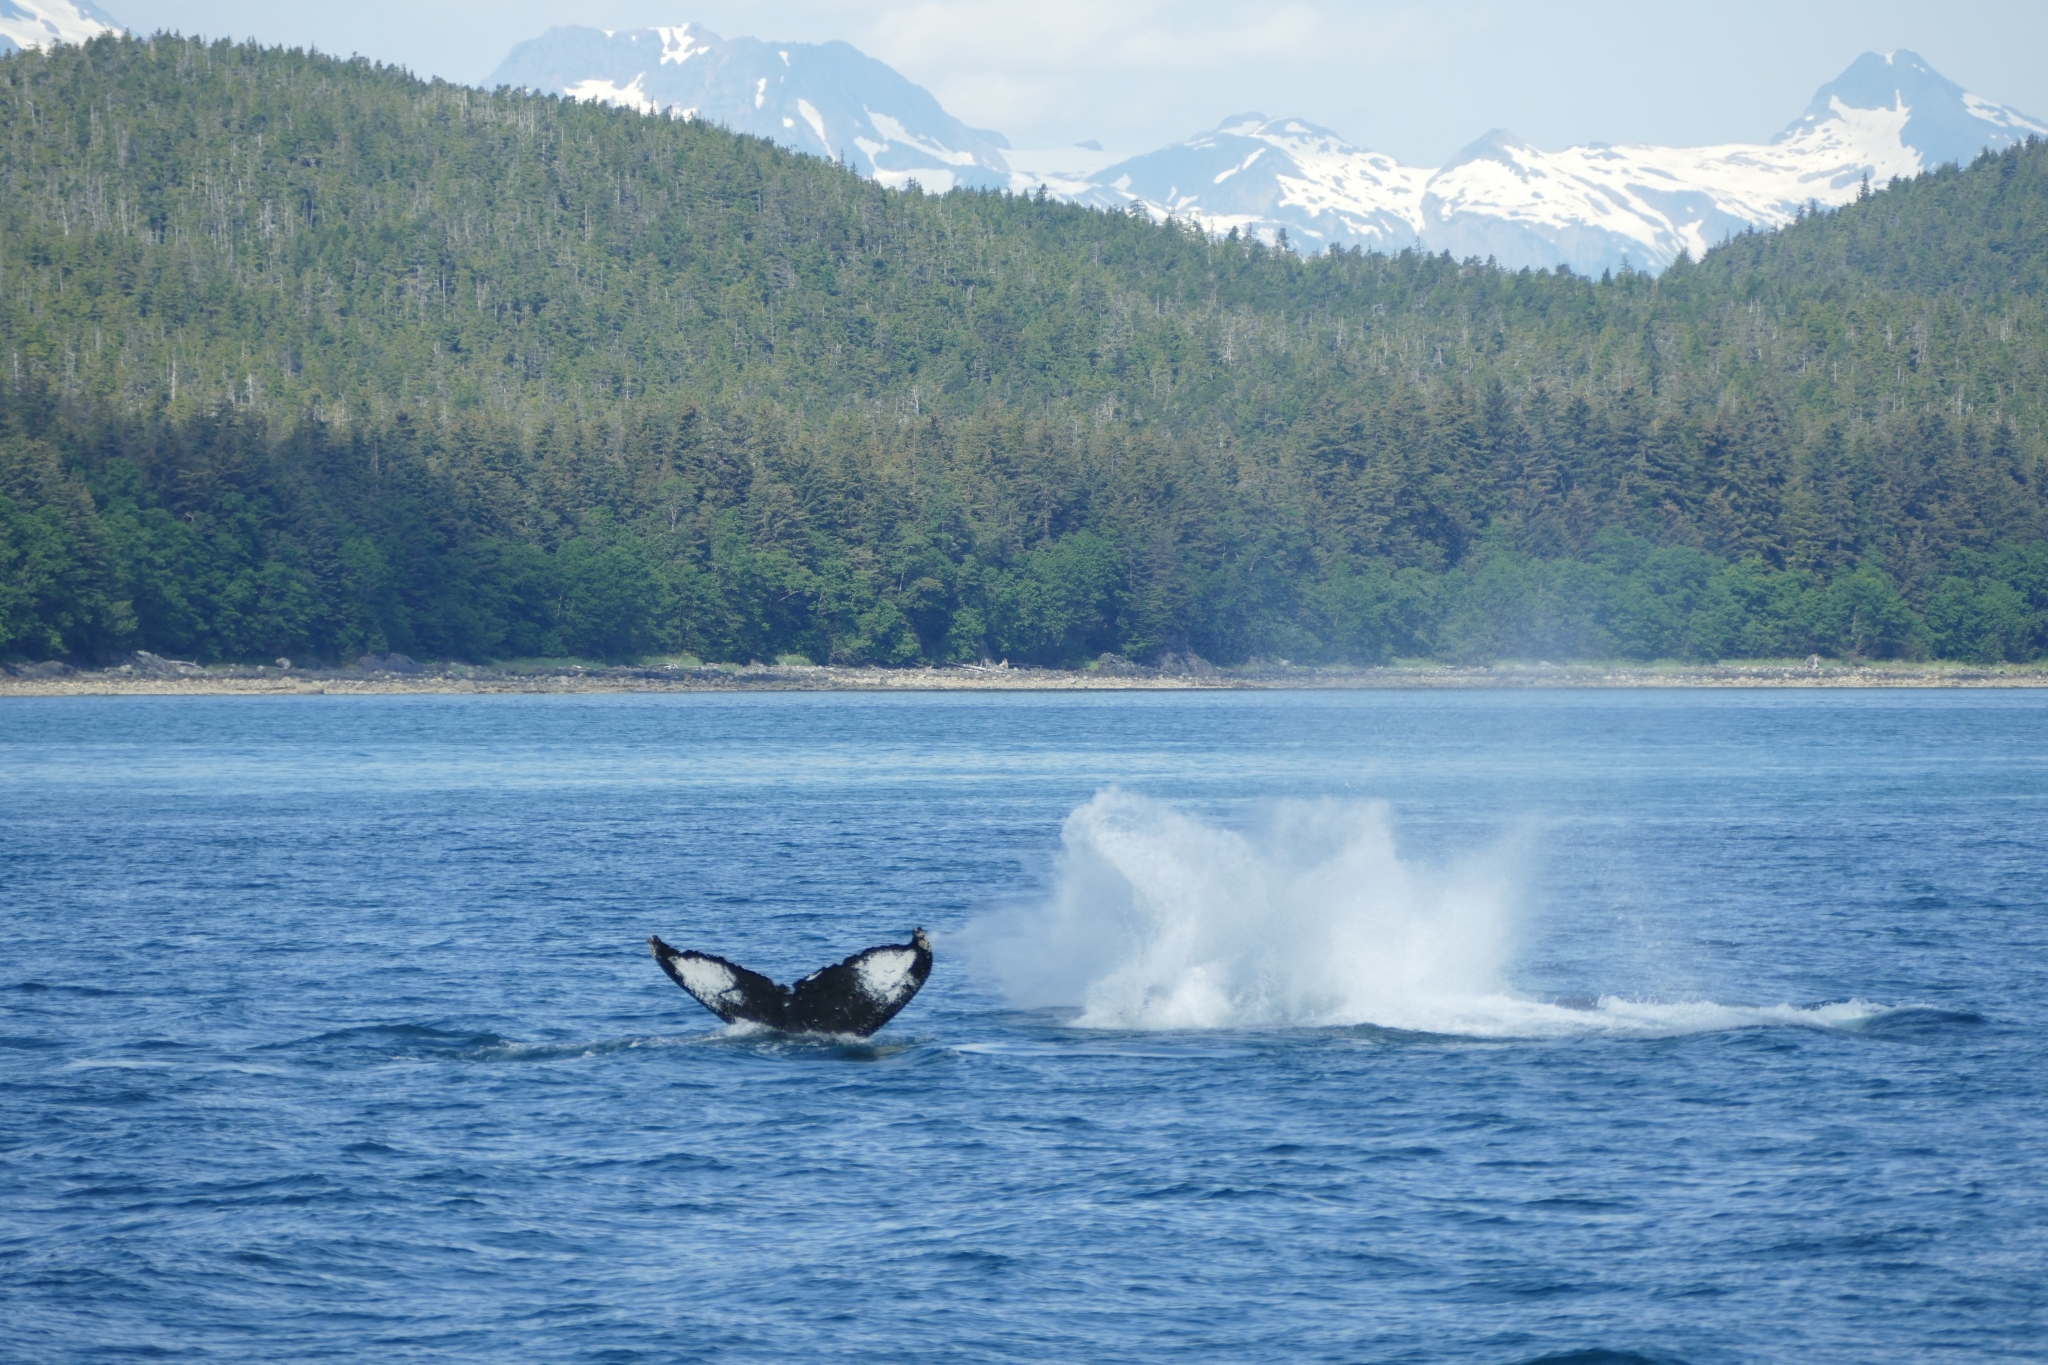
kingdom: Animalia
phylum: Chordata
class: Mammalia
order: Cetacea
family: Balaenopteridae
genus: Megaptera
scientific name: Megaptera novaeangliae
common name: Humpback whale
